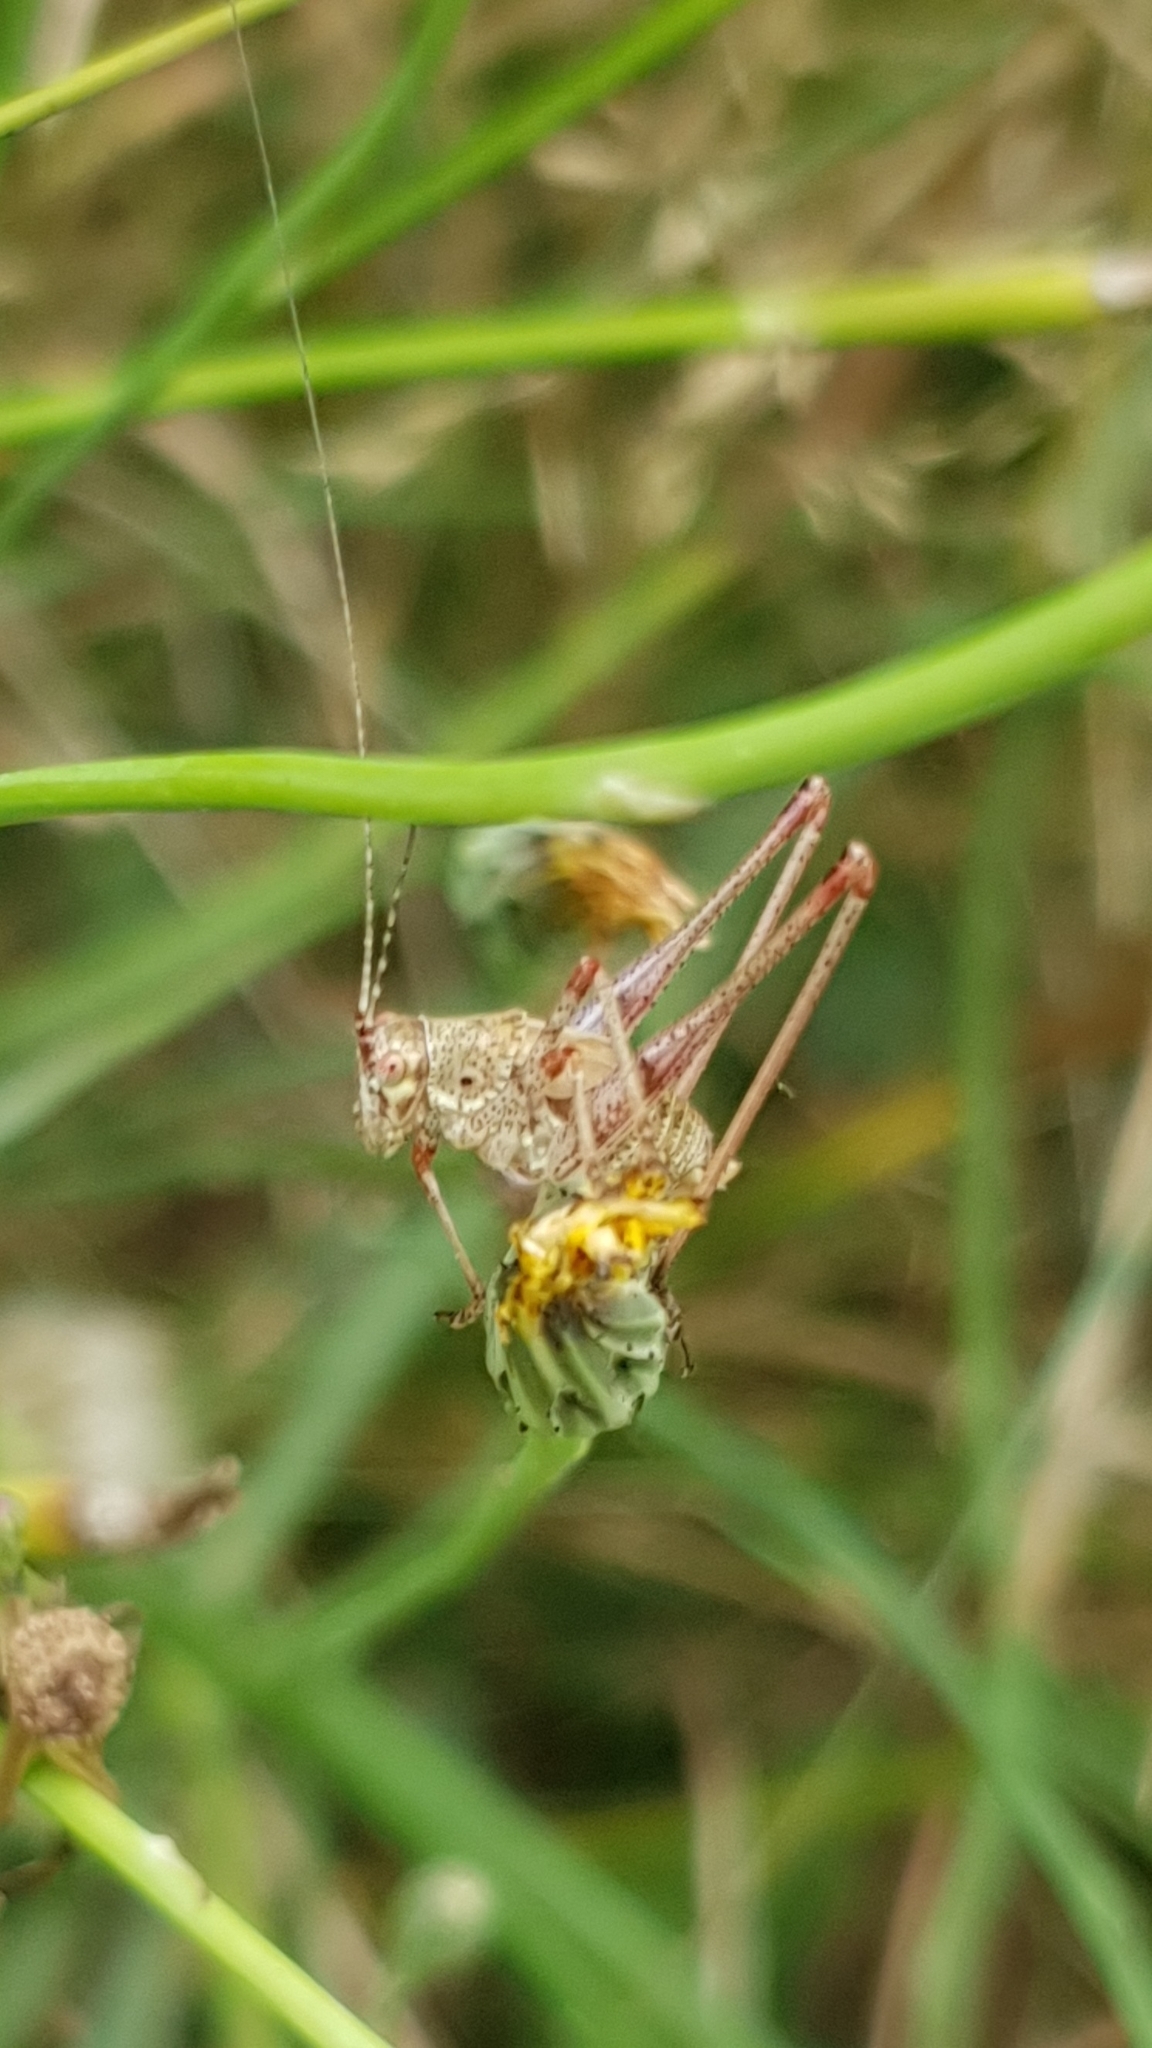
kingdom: Animalia
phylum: Arthropoda
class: Insecta
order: Orthoptera
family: Tettigoniidae
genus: Phaneroptera
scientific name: Phaneroptera nana
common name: Southern sickle bush-cricket
